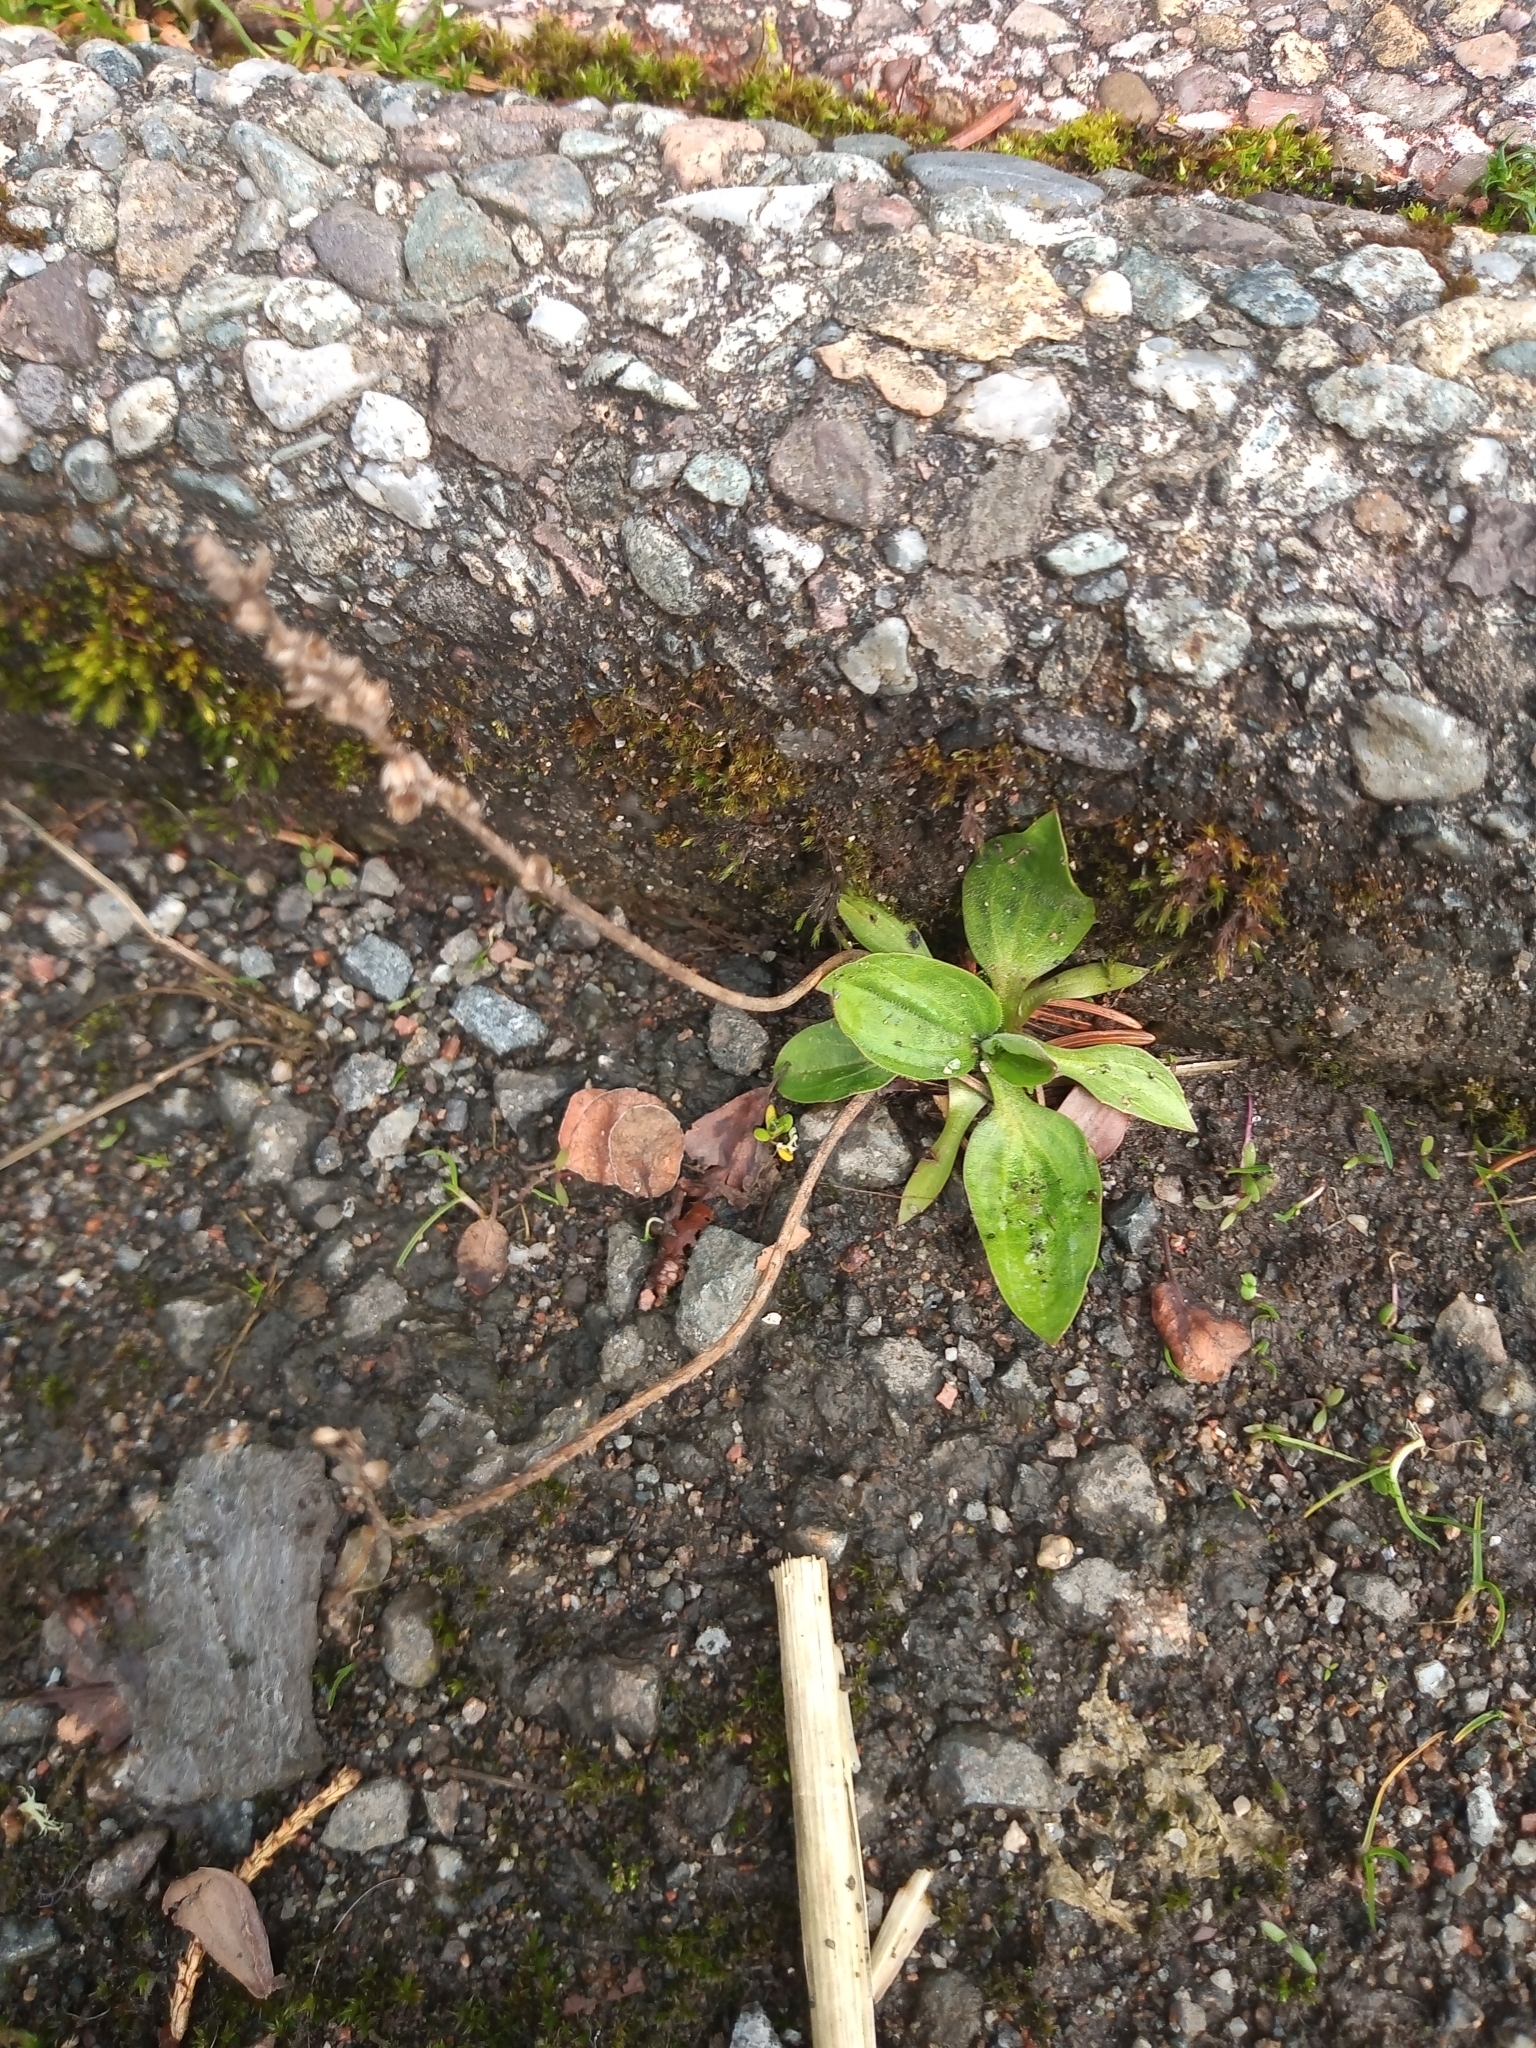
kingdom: Plantae
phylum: Tracheophyta
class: Magnoliopsida
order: Lamiales
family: Plantaginaceae
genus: Plantago
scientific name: Plantago major
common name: Common plantain
